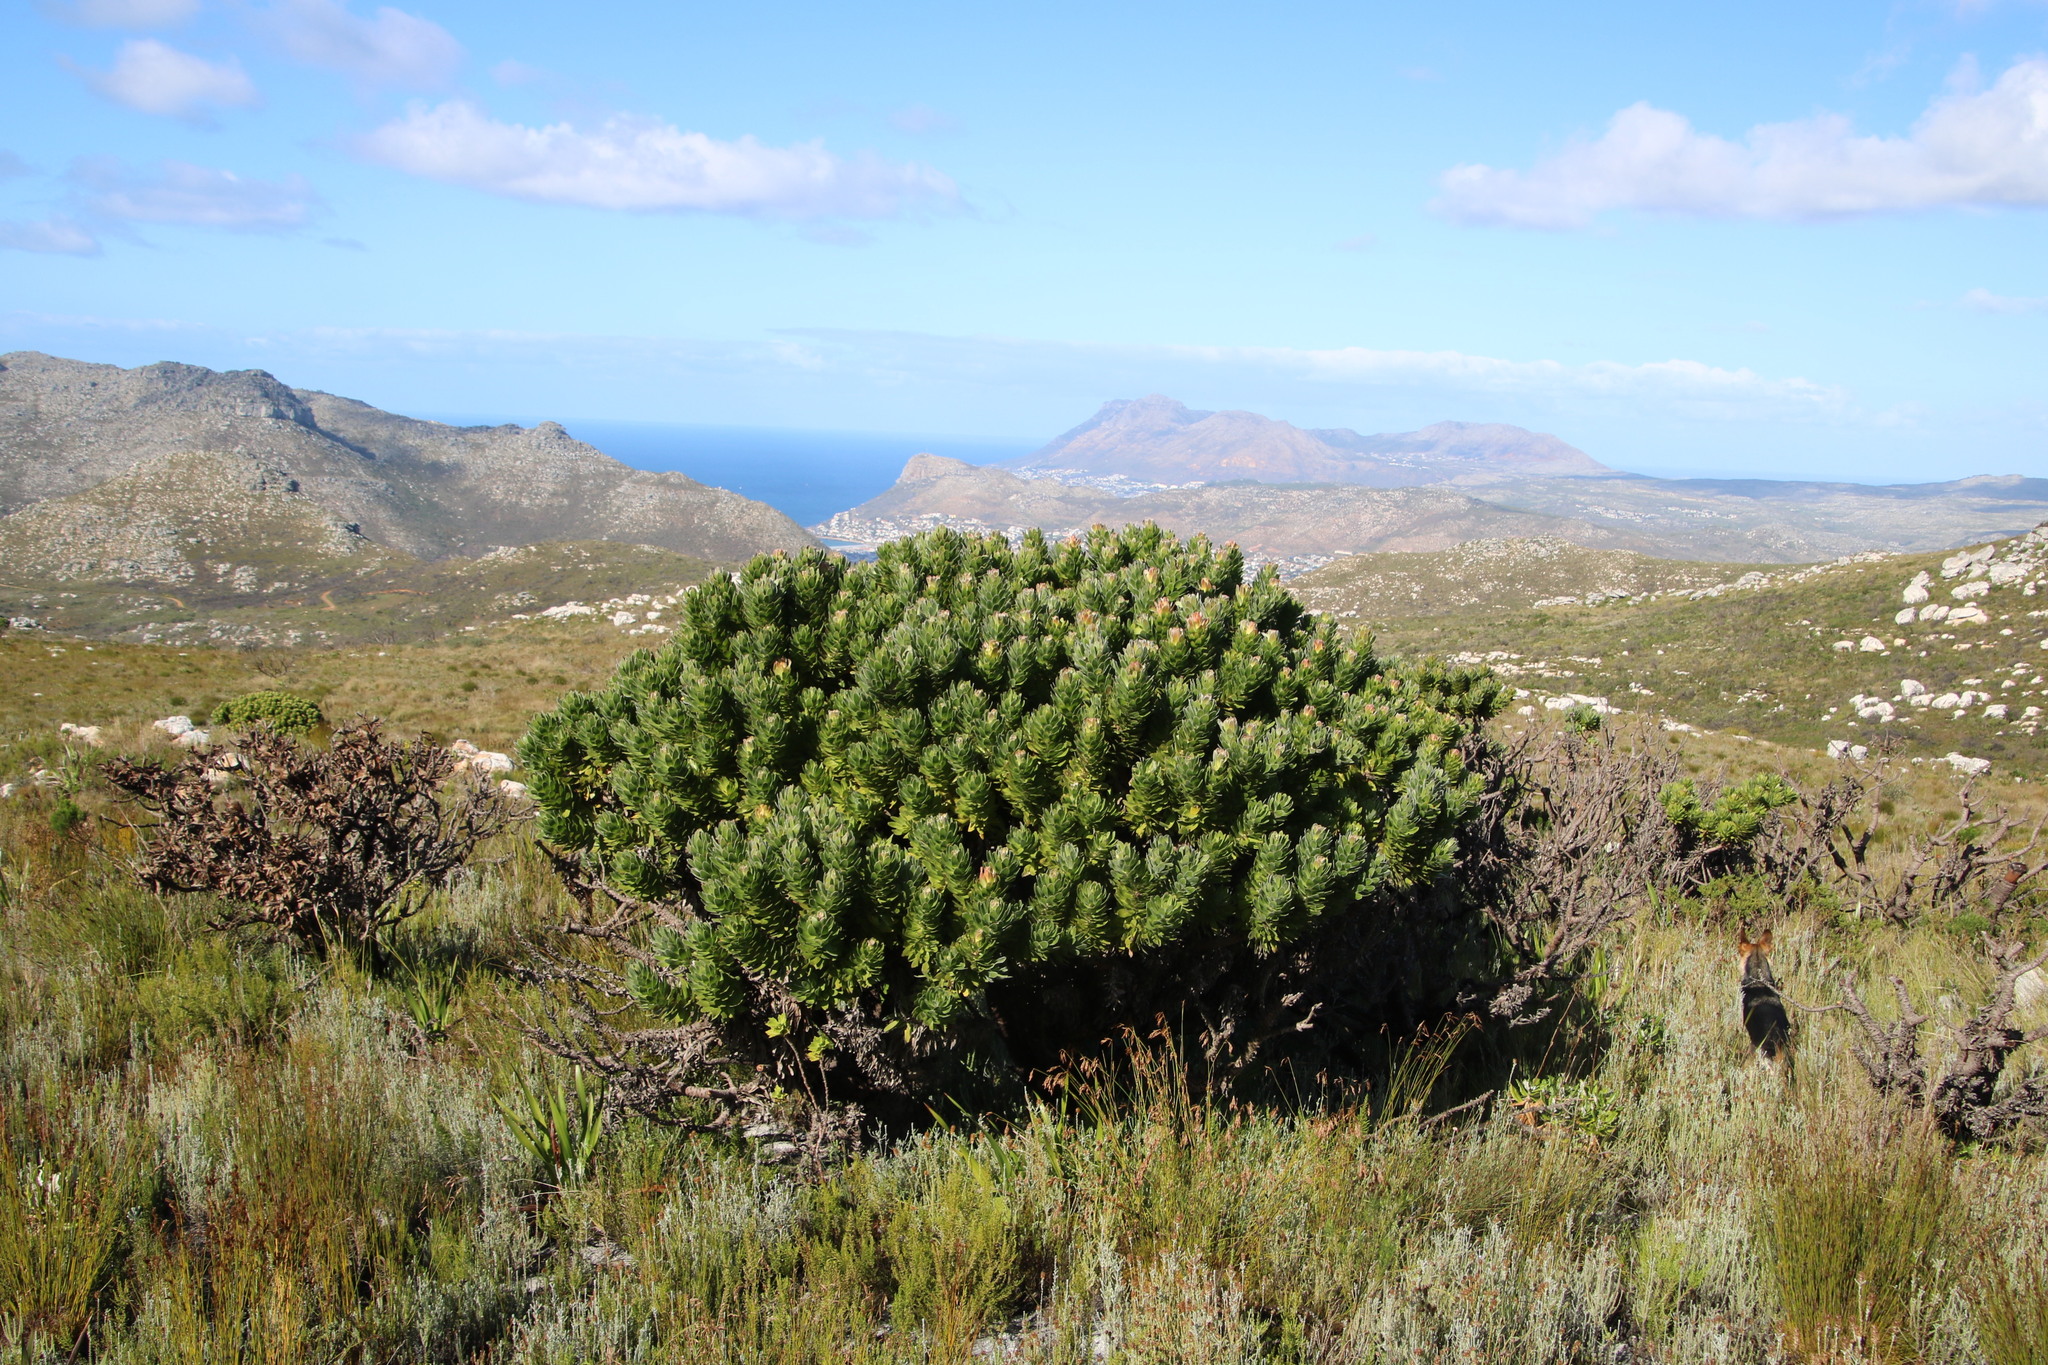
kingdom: Plantae
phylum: Tracheophyta
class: Magnoliopsida
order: Proteales
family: Proteaceae
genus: Mimetes
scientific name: Mimetes fimbriifolius
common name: Fringed bottlebrush
